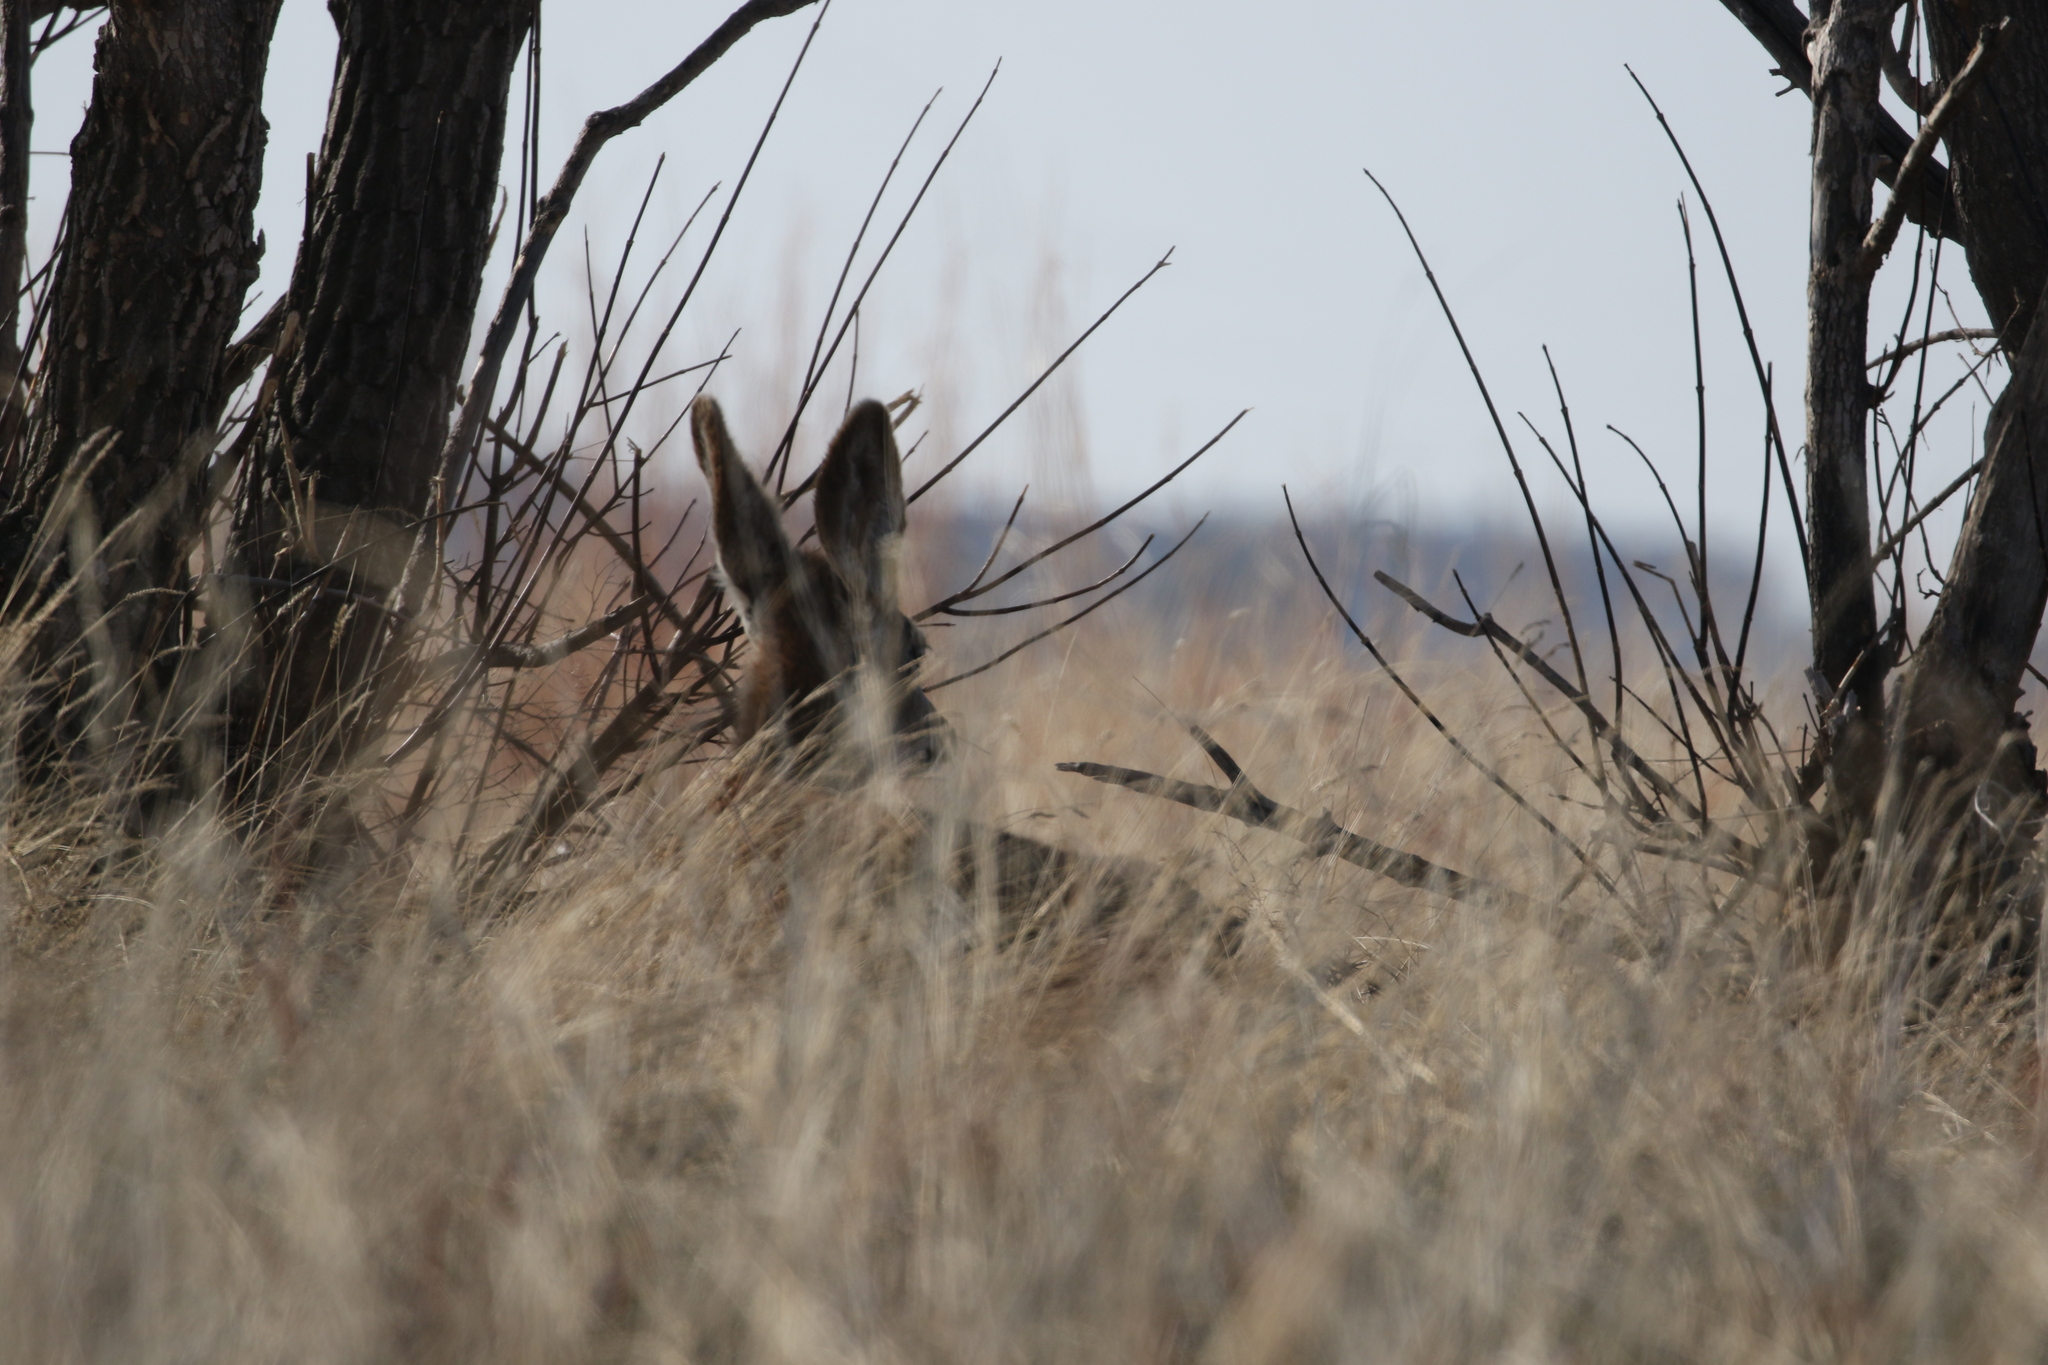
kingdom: Animalia
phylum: Chordata
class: Mammalia
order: Artiodactyla
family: Cervidae
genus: Odocoileus
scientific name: Odocoileus hemionus
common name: Mule deer
